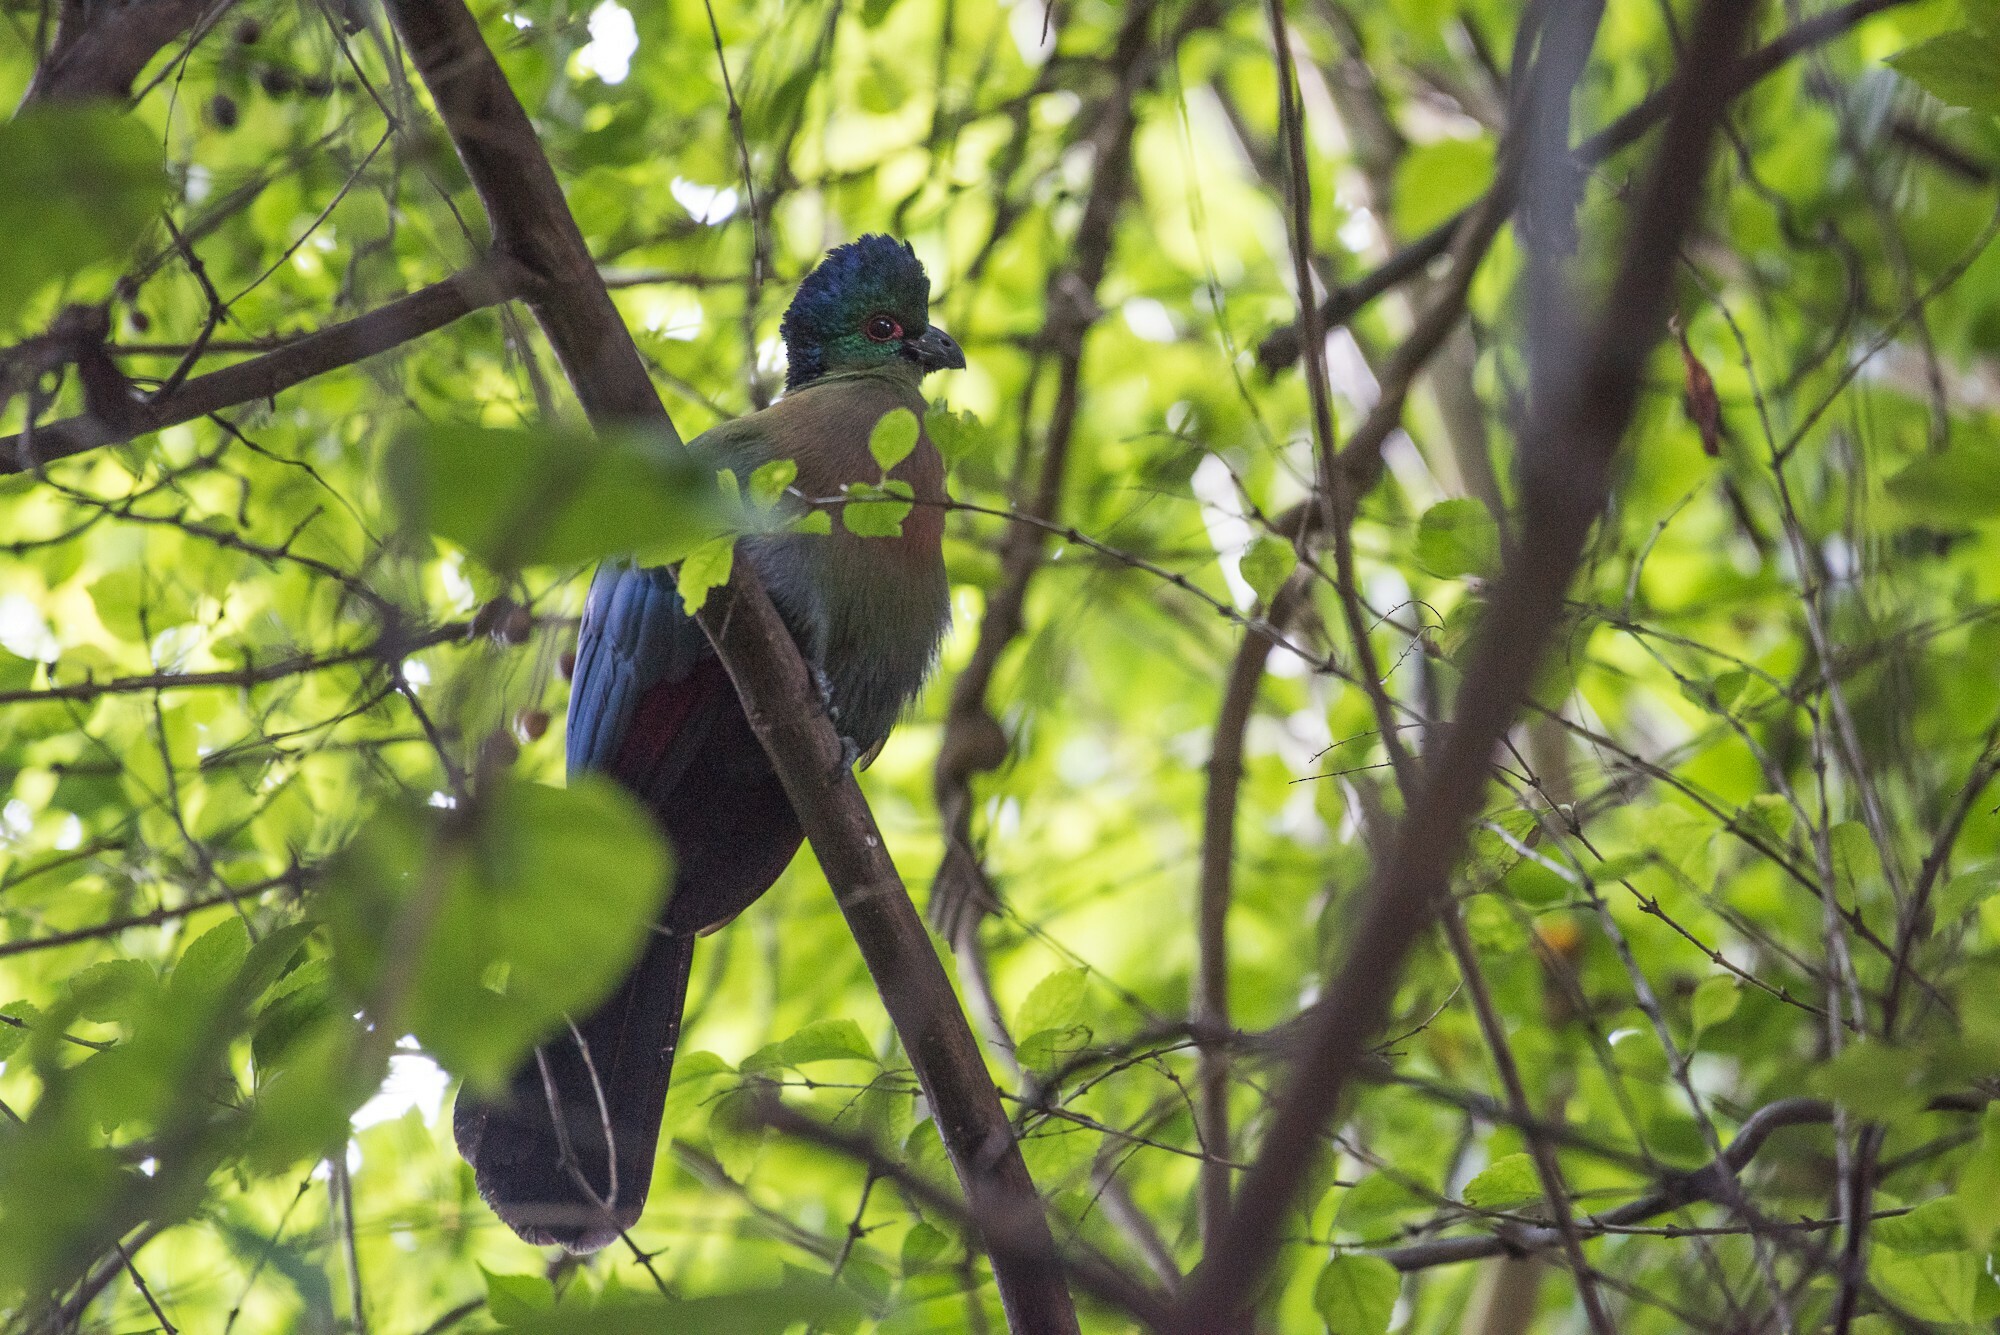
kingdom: Animalia
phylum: Chordata
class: Aves
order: Musophagiformes
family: Musophagidae
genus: Tauraco
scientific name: Tauraco porphyreolophus
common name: Purple-crested turaco
